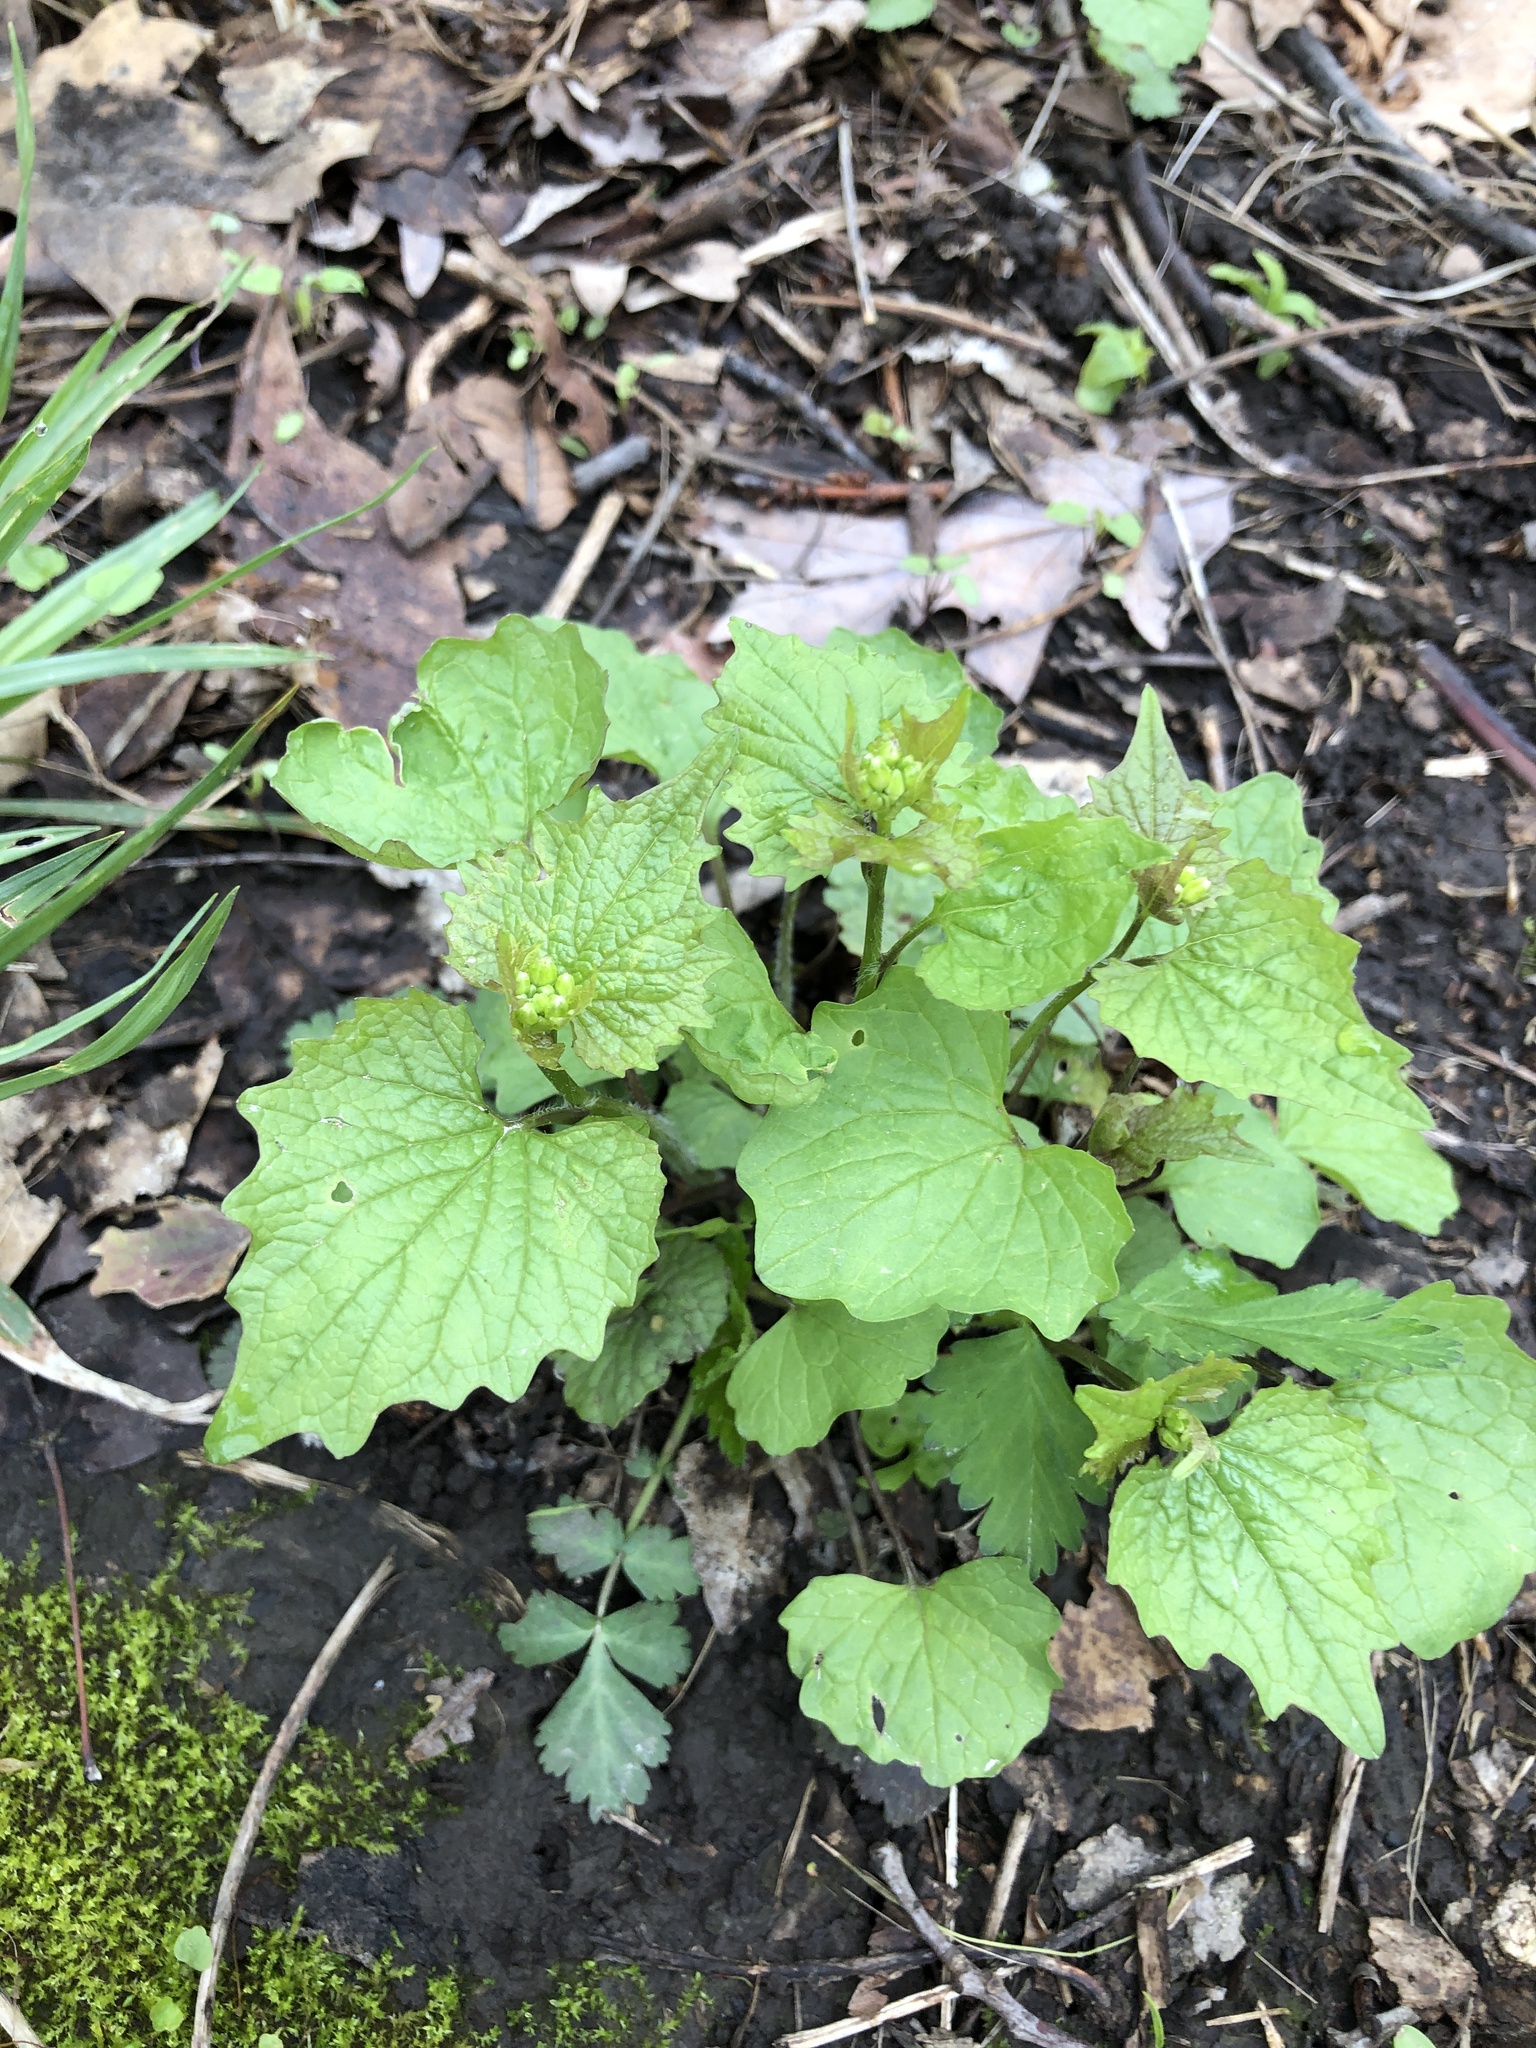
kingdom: Plantae
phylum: Tracheophyta
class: Magnoliopsida
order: Brassicales
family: Brassicaceae
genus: Alliaria
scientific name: Alliaria petiolata
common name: Garlic mustard
